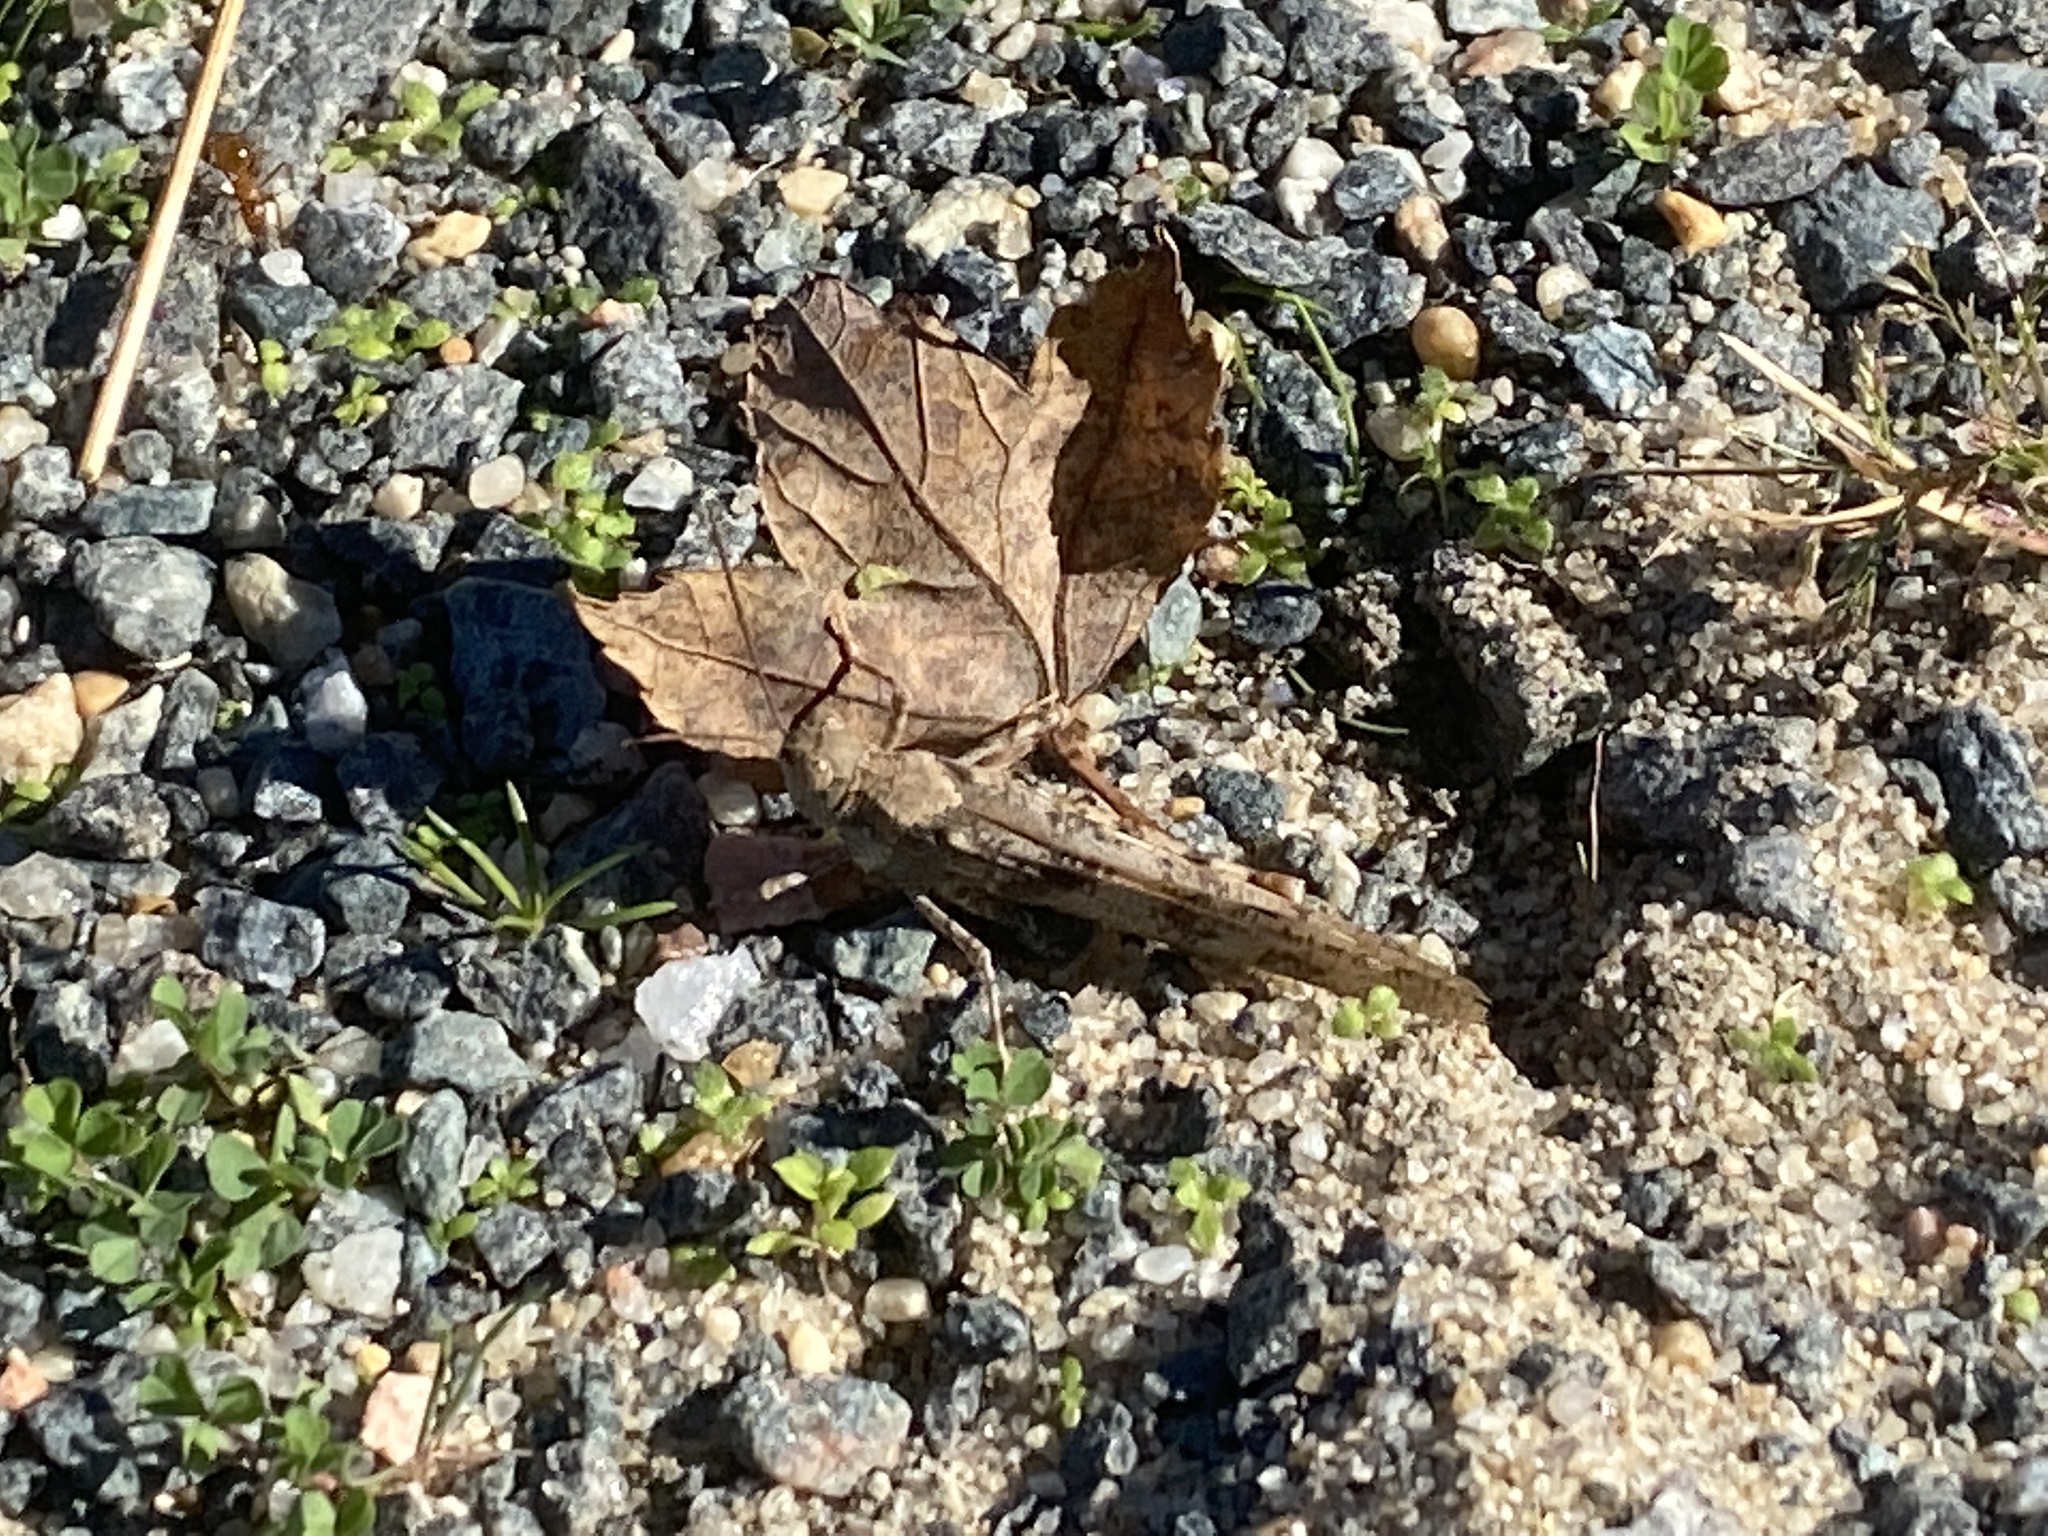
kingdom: Animalia
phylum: Arthropoda
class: Insecta
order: Orthoptera
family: Acrididae
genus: Trimerotropis
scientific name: Trimerotropis maritima
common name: Seaside locust
